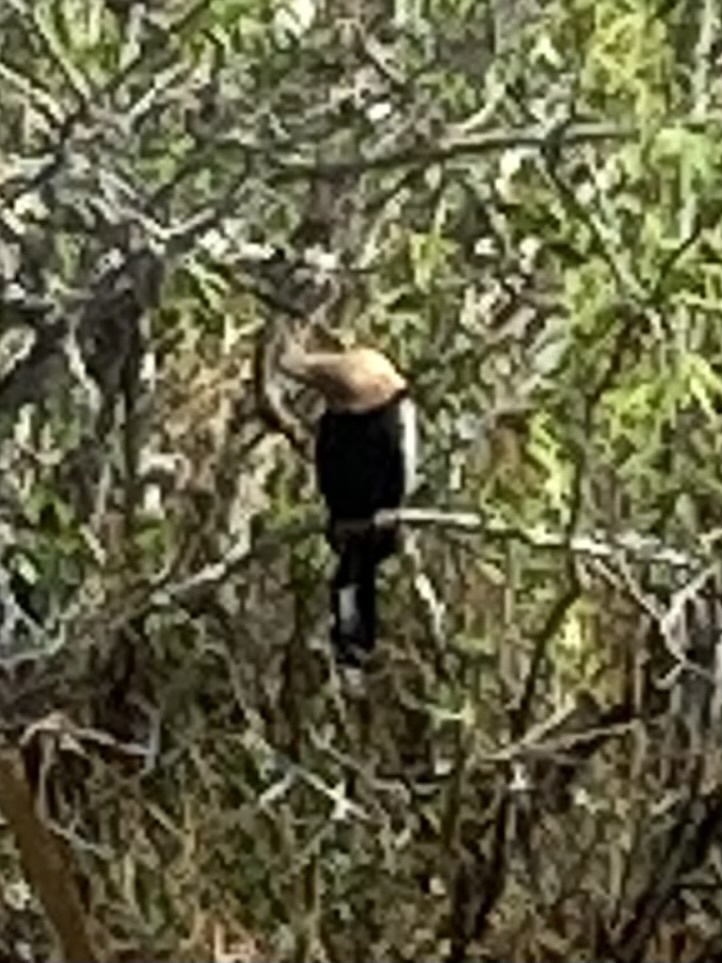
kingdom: Animalia
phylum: Chordata
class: Aves
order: Suliformes
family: Anhingidae
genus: Anhinga
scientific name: Anhinga anhinga
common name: Anhinga
